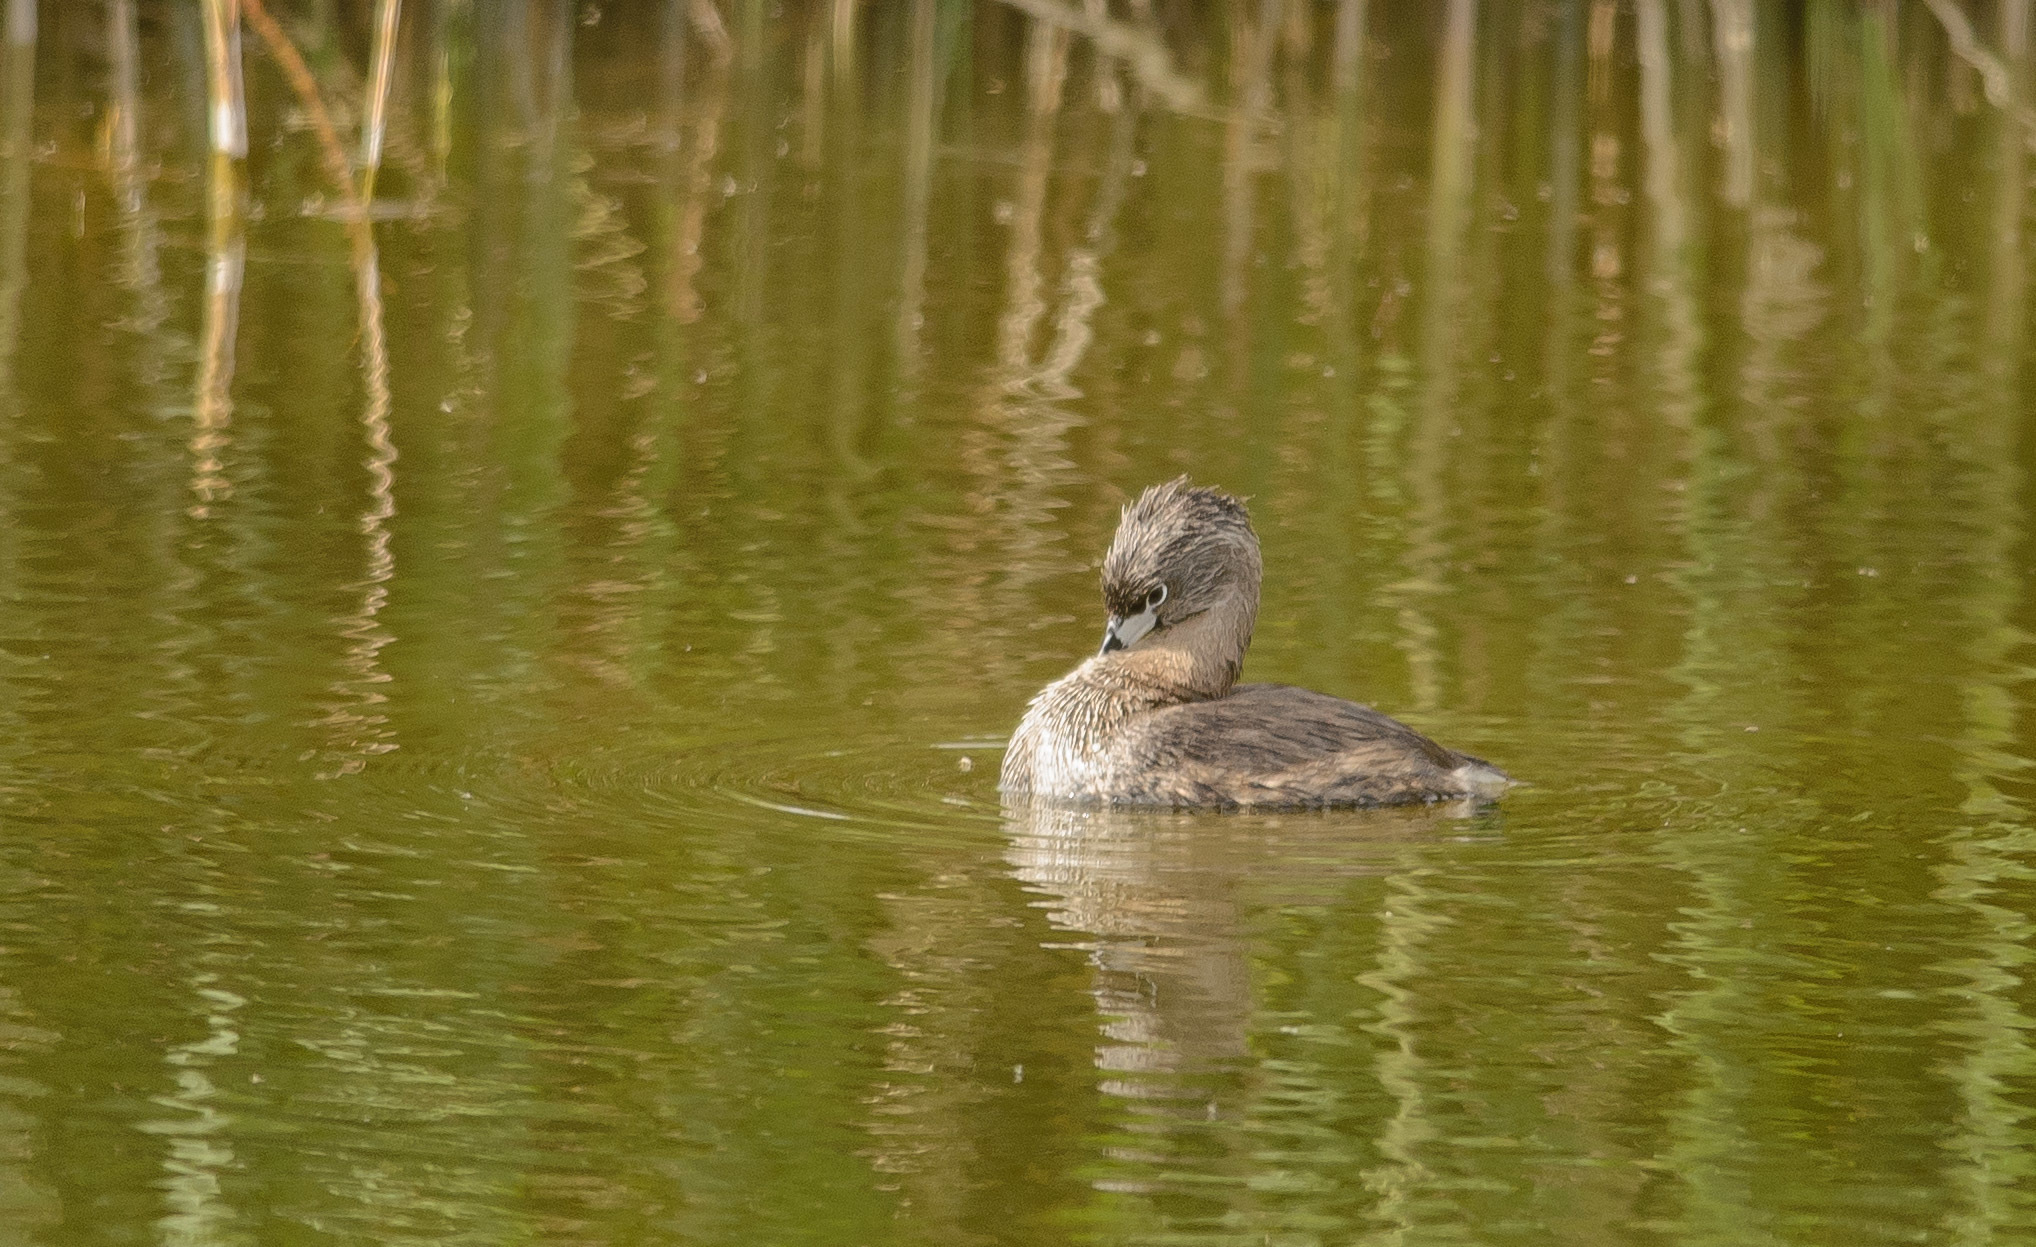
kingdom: Animalia
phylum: Chordata
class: Aves
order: Podicipediformes
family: Podicipedidae
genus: Podilymbus
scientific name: Podilymbus podiceps
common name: Pied-billed grebe
